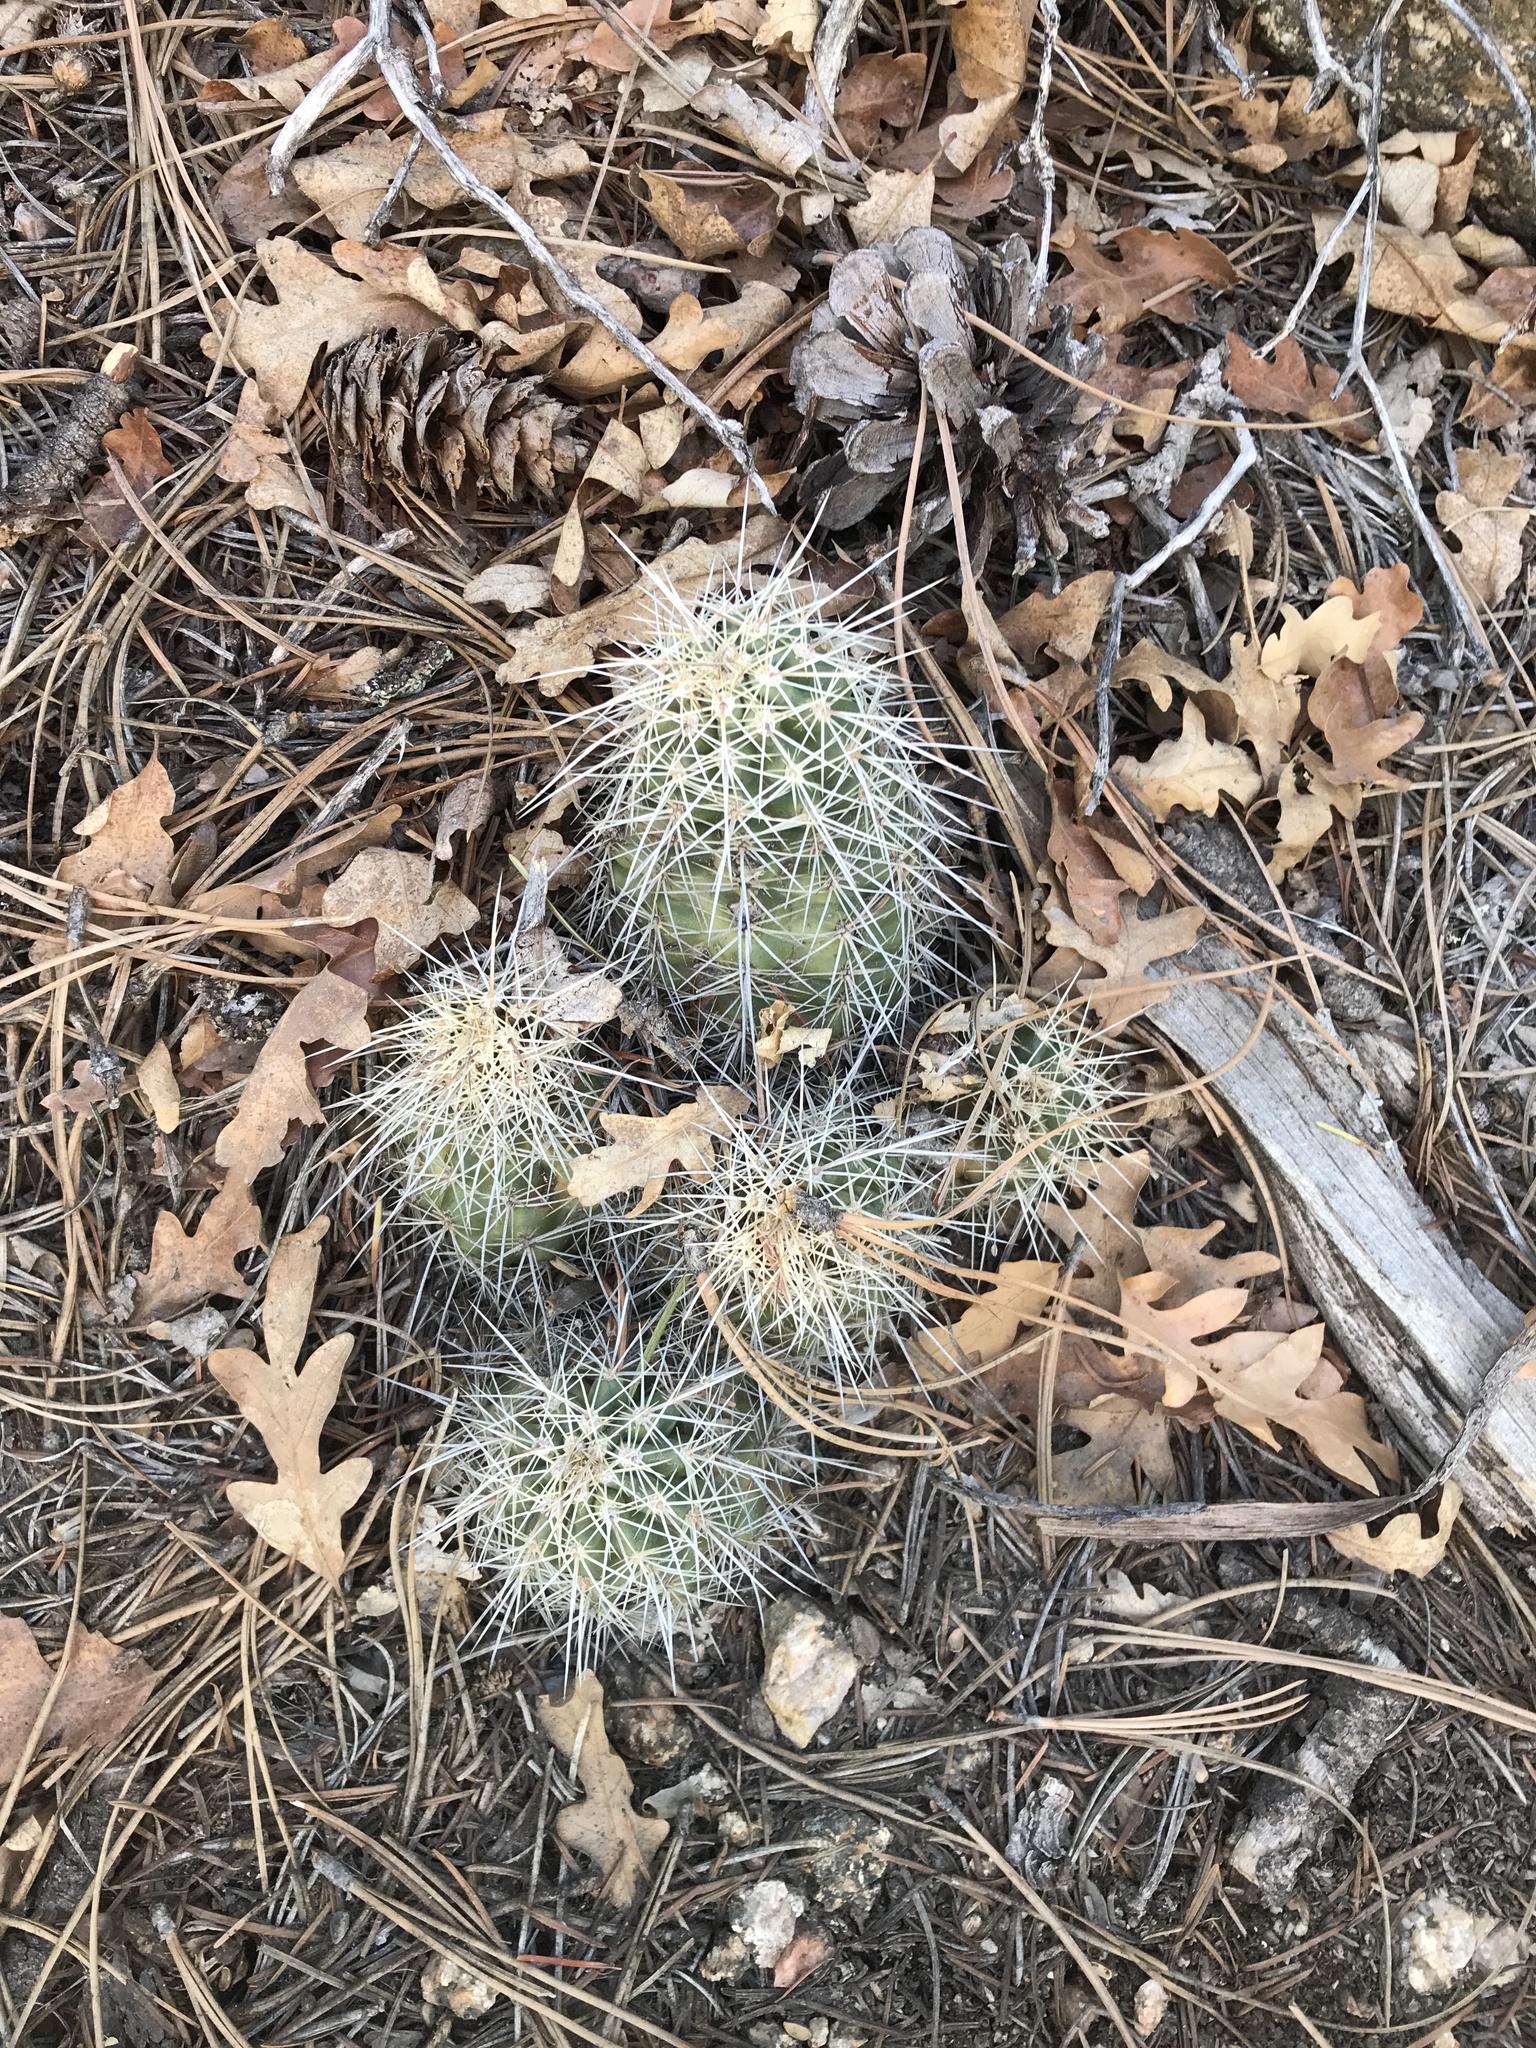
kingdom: Plantae
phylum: Tracheophyta
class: Magnoliopsida
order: Caryophyllales
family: Cactaceae
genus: Echinocereus
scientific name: Echinocereus coccineus
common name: Scarlet hedgehog cactus
